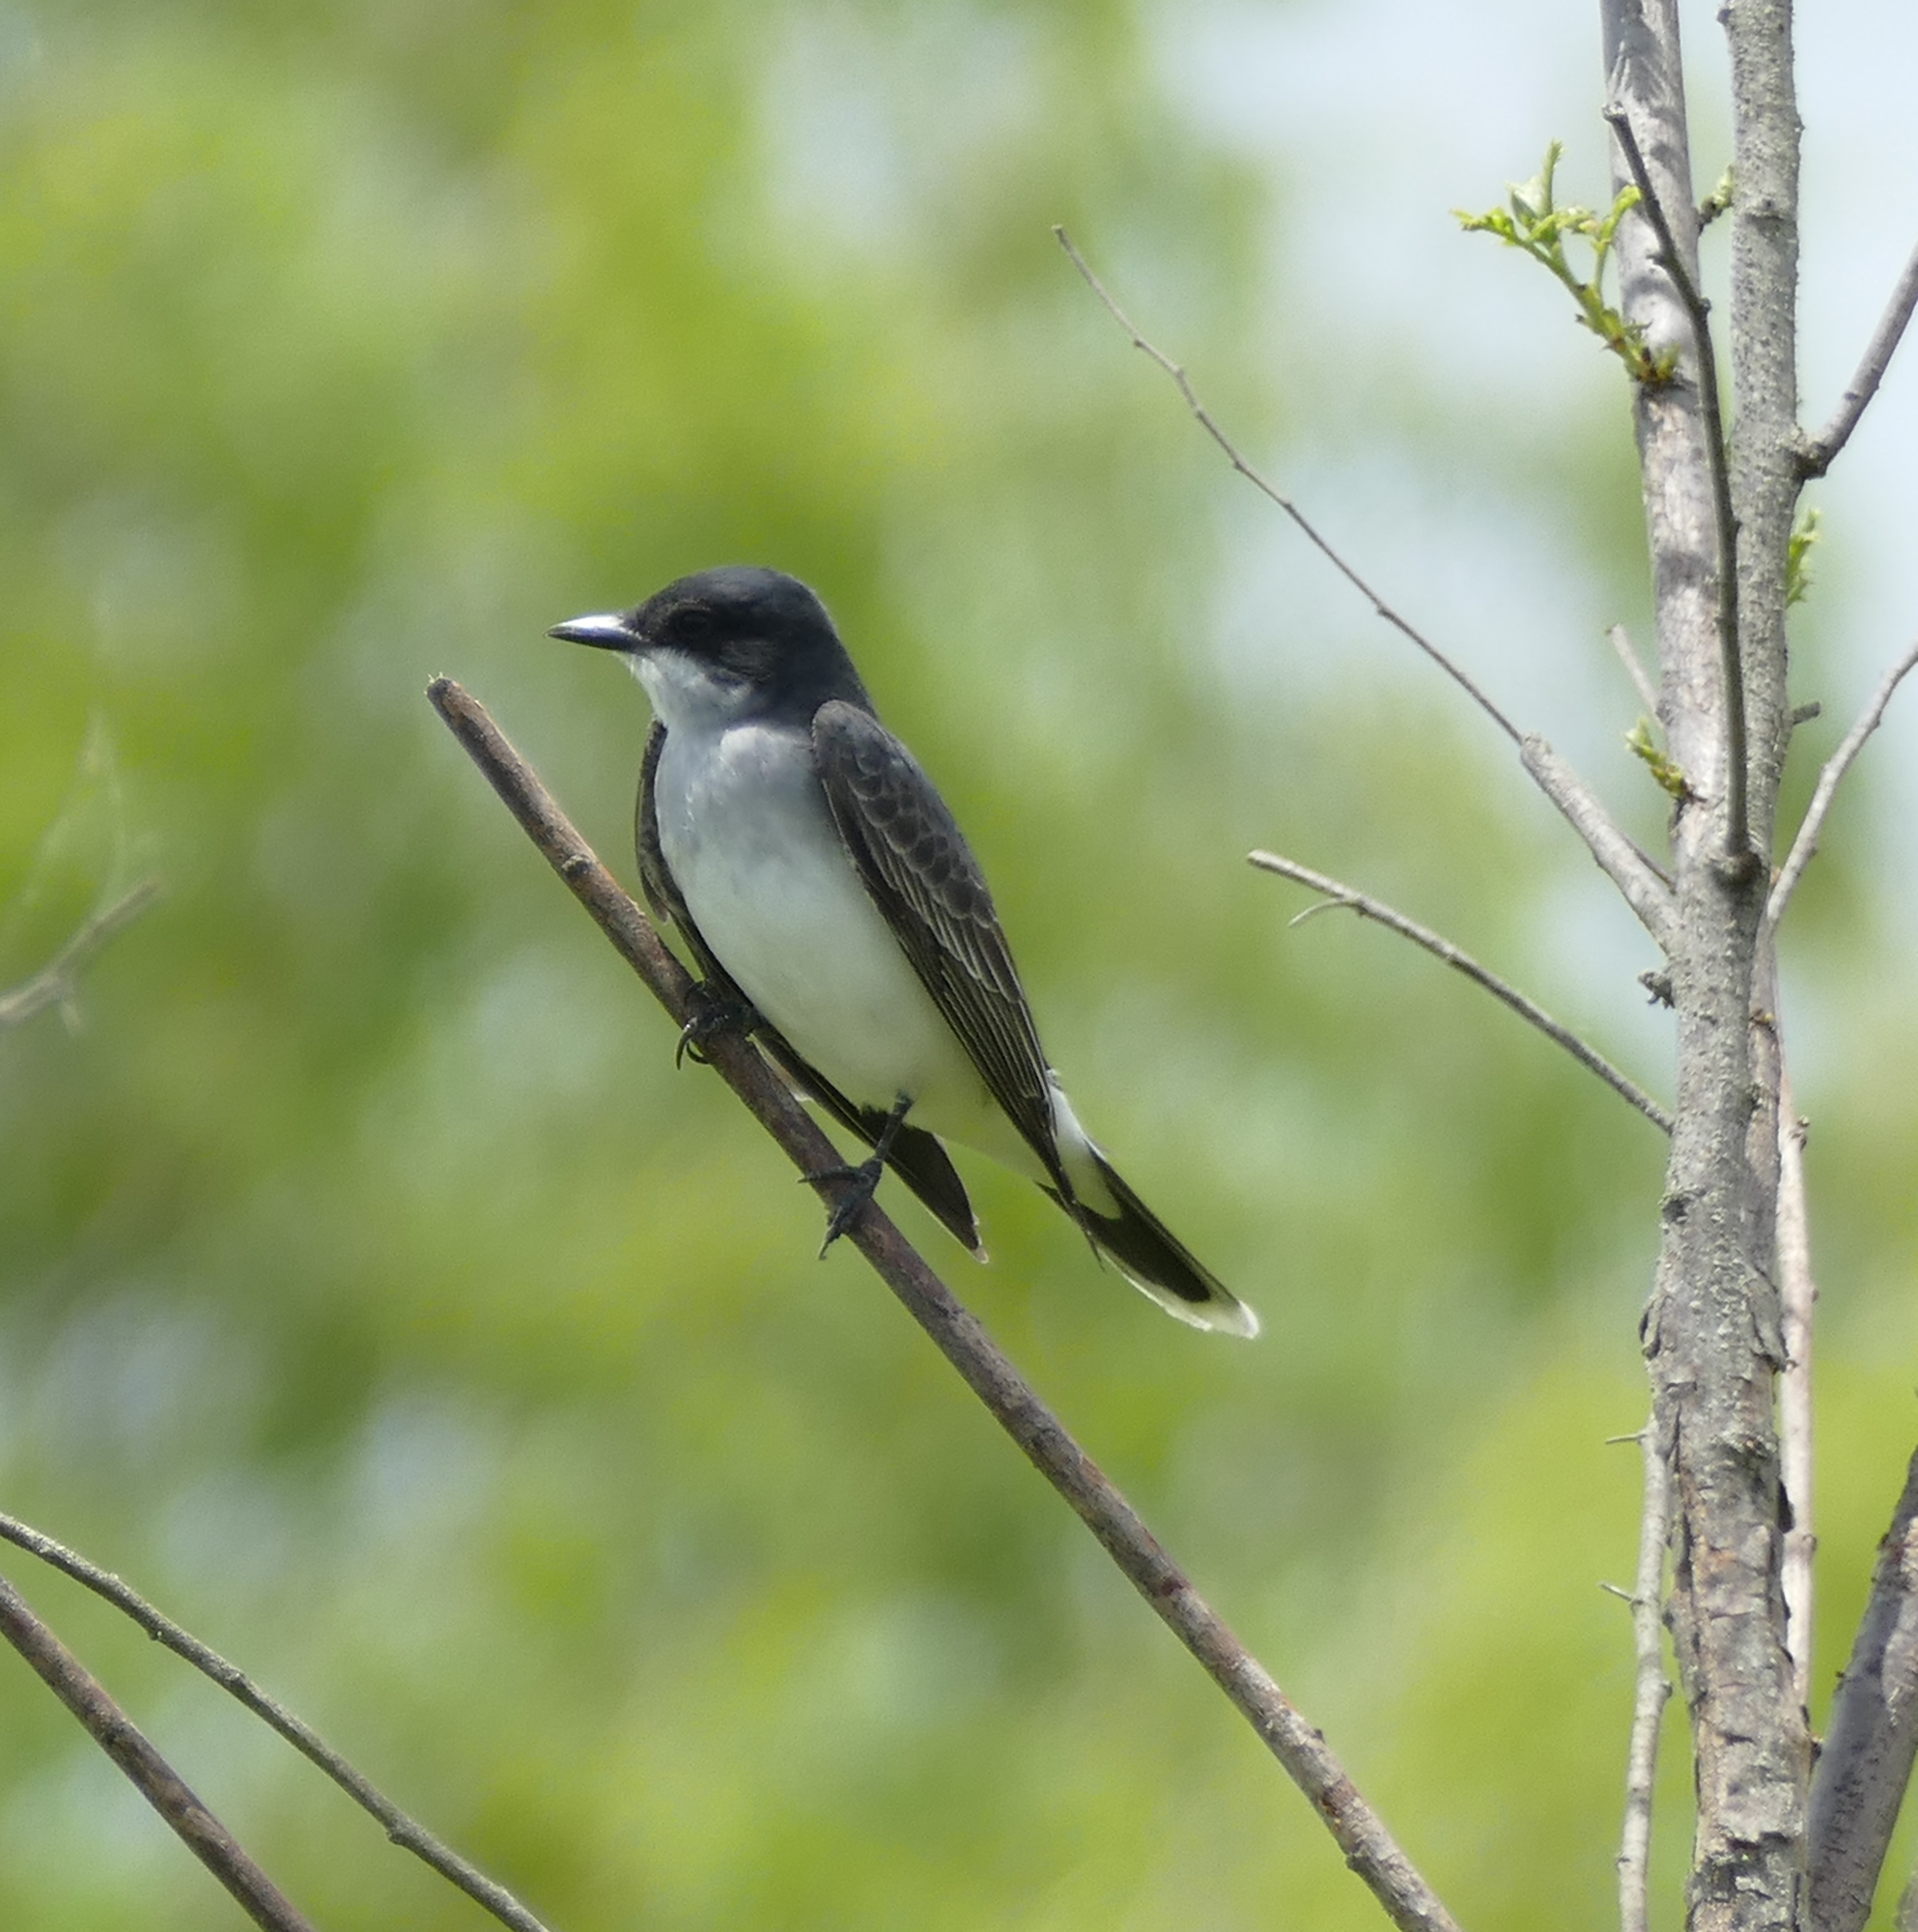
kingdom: Animalia
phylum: Chordata
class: Aves
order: Passeriformes
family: Tyrannidae
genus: Tyrannus
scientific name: Tyrannus tyrannus
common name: Eastern kingbird
